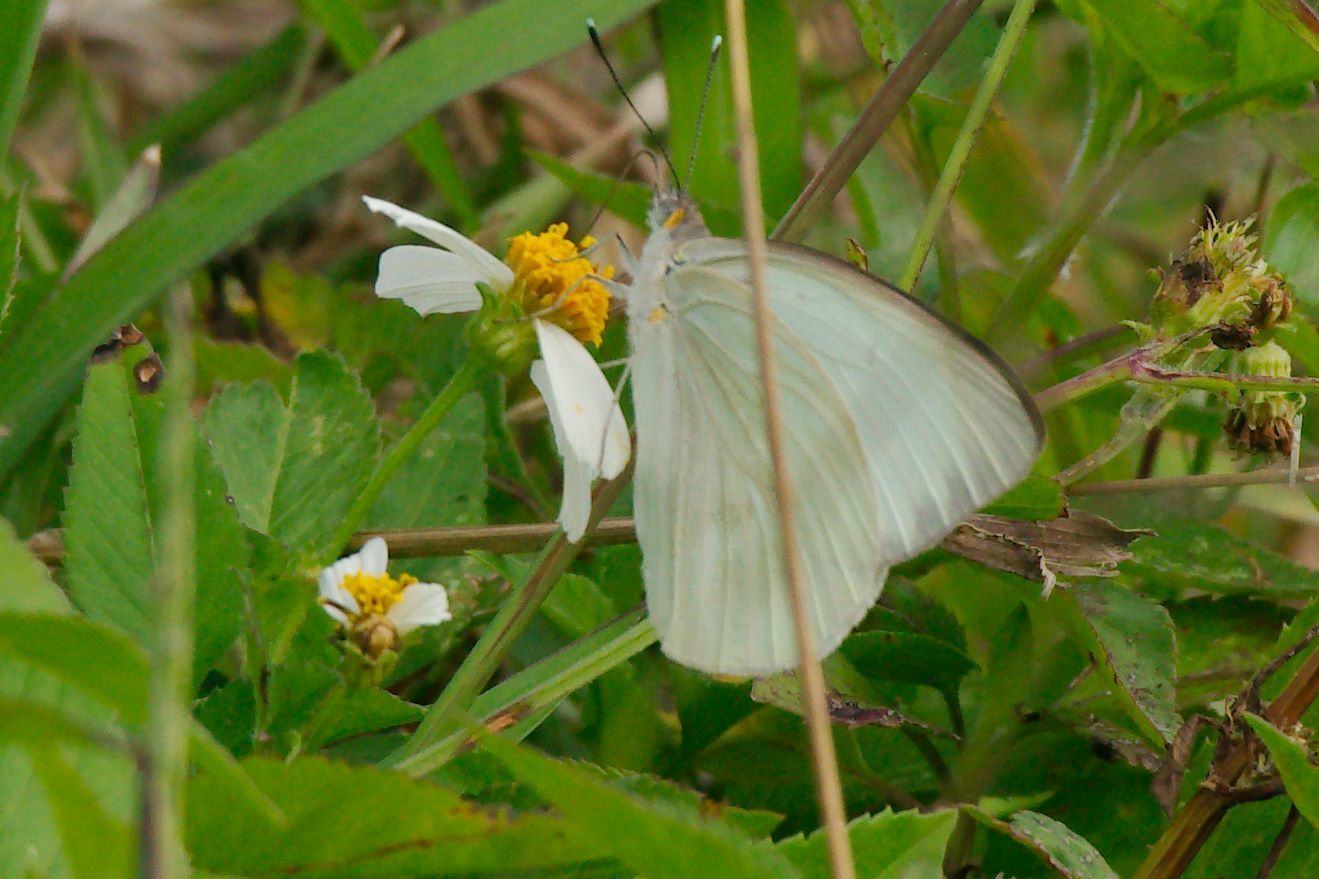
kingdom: Animalia
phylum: Arthropoda
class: Insecta
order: Lepidoptera
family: Pieridae
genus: Ascia
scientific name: Ascia monuste
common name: Great southern white
